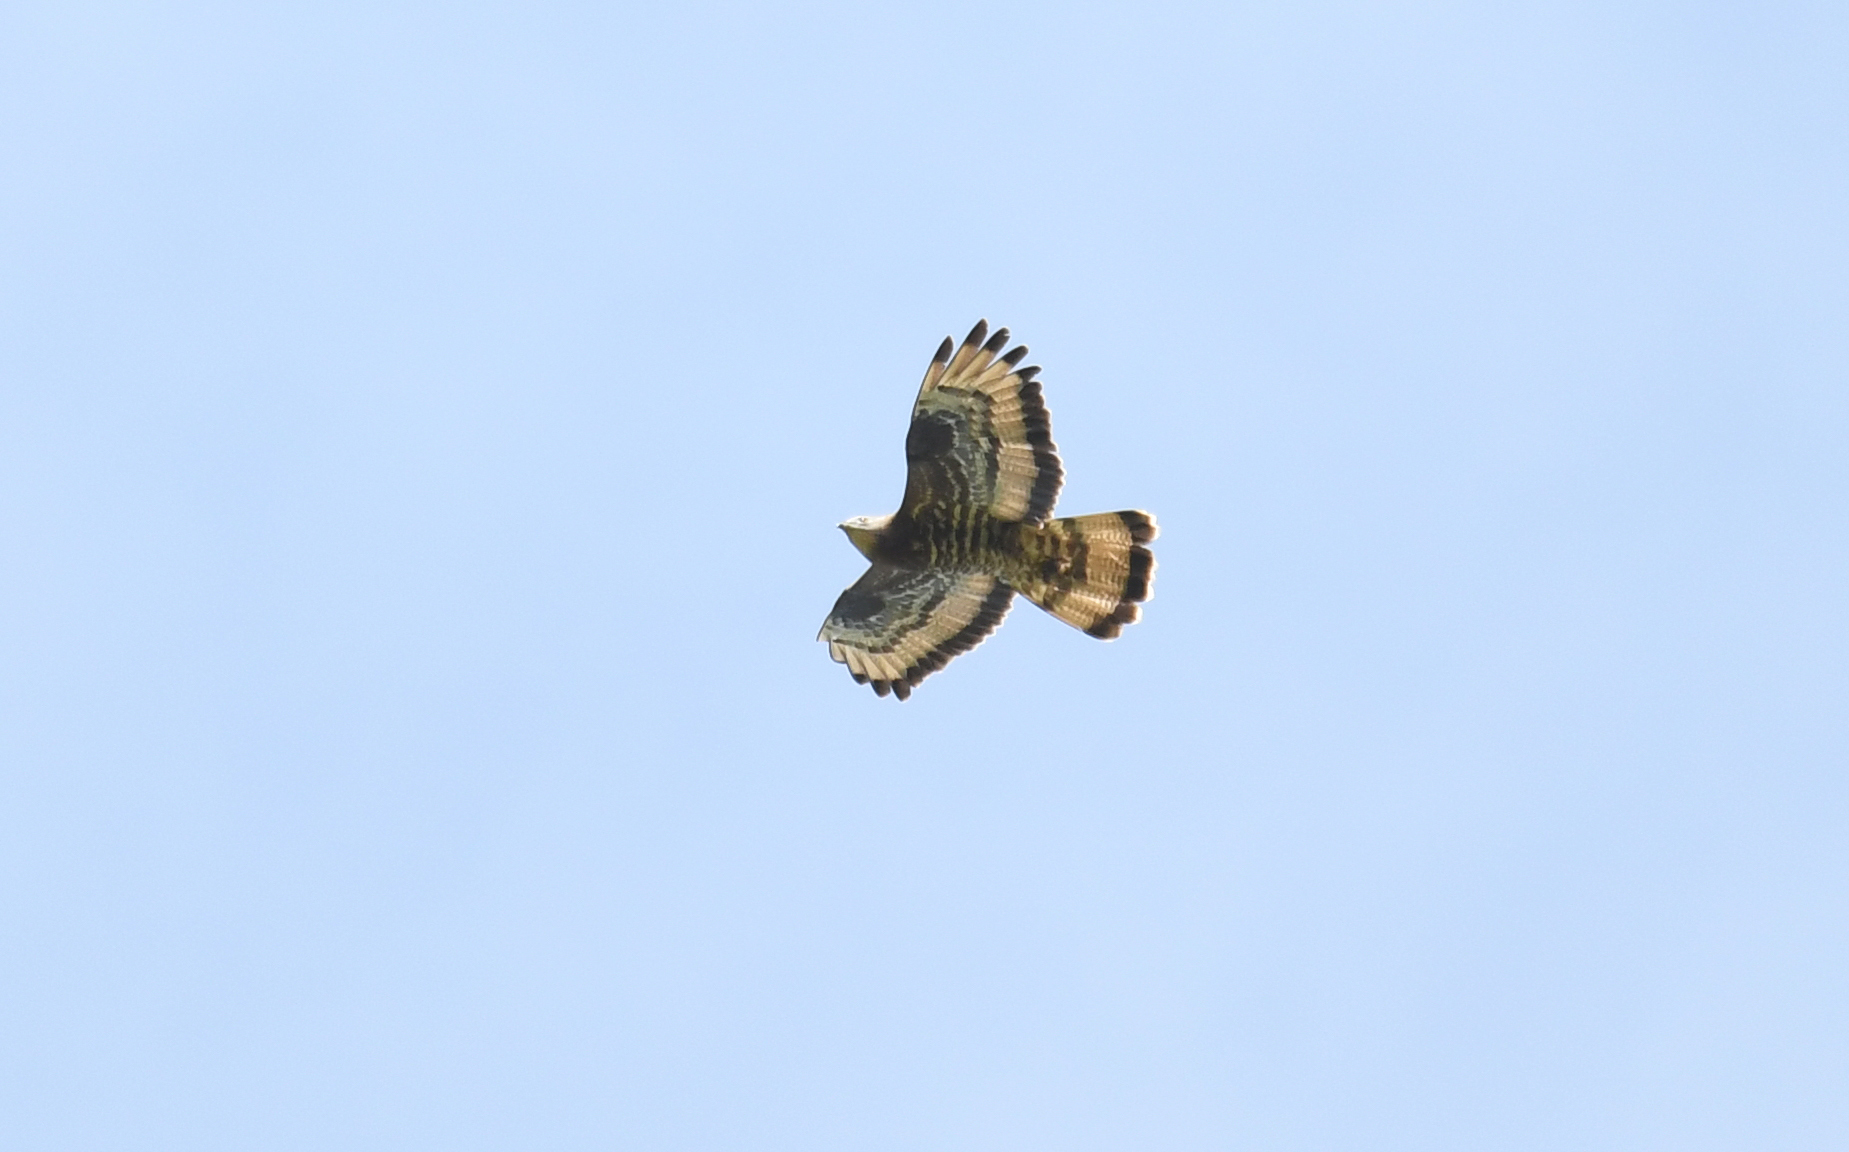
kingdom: Animalia
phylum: Chordata
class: Aves
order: Accipitriformes
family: Accipitridae
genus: Pernis
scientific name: Pernis apivorus
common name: European honey buzzard
